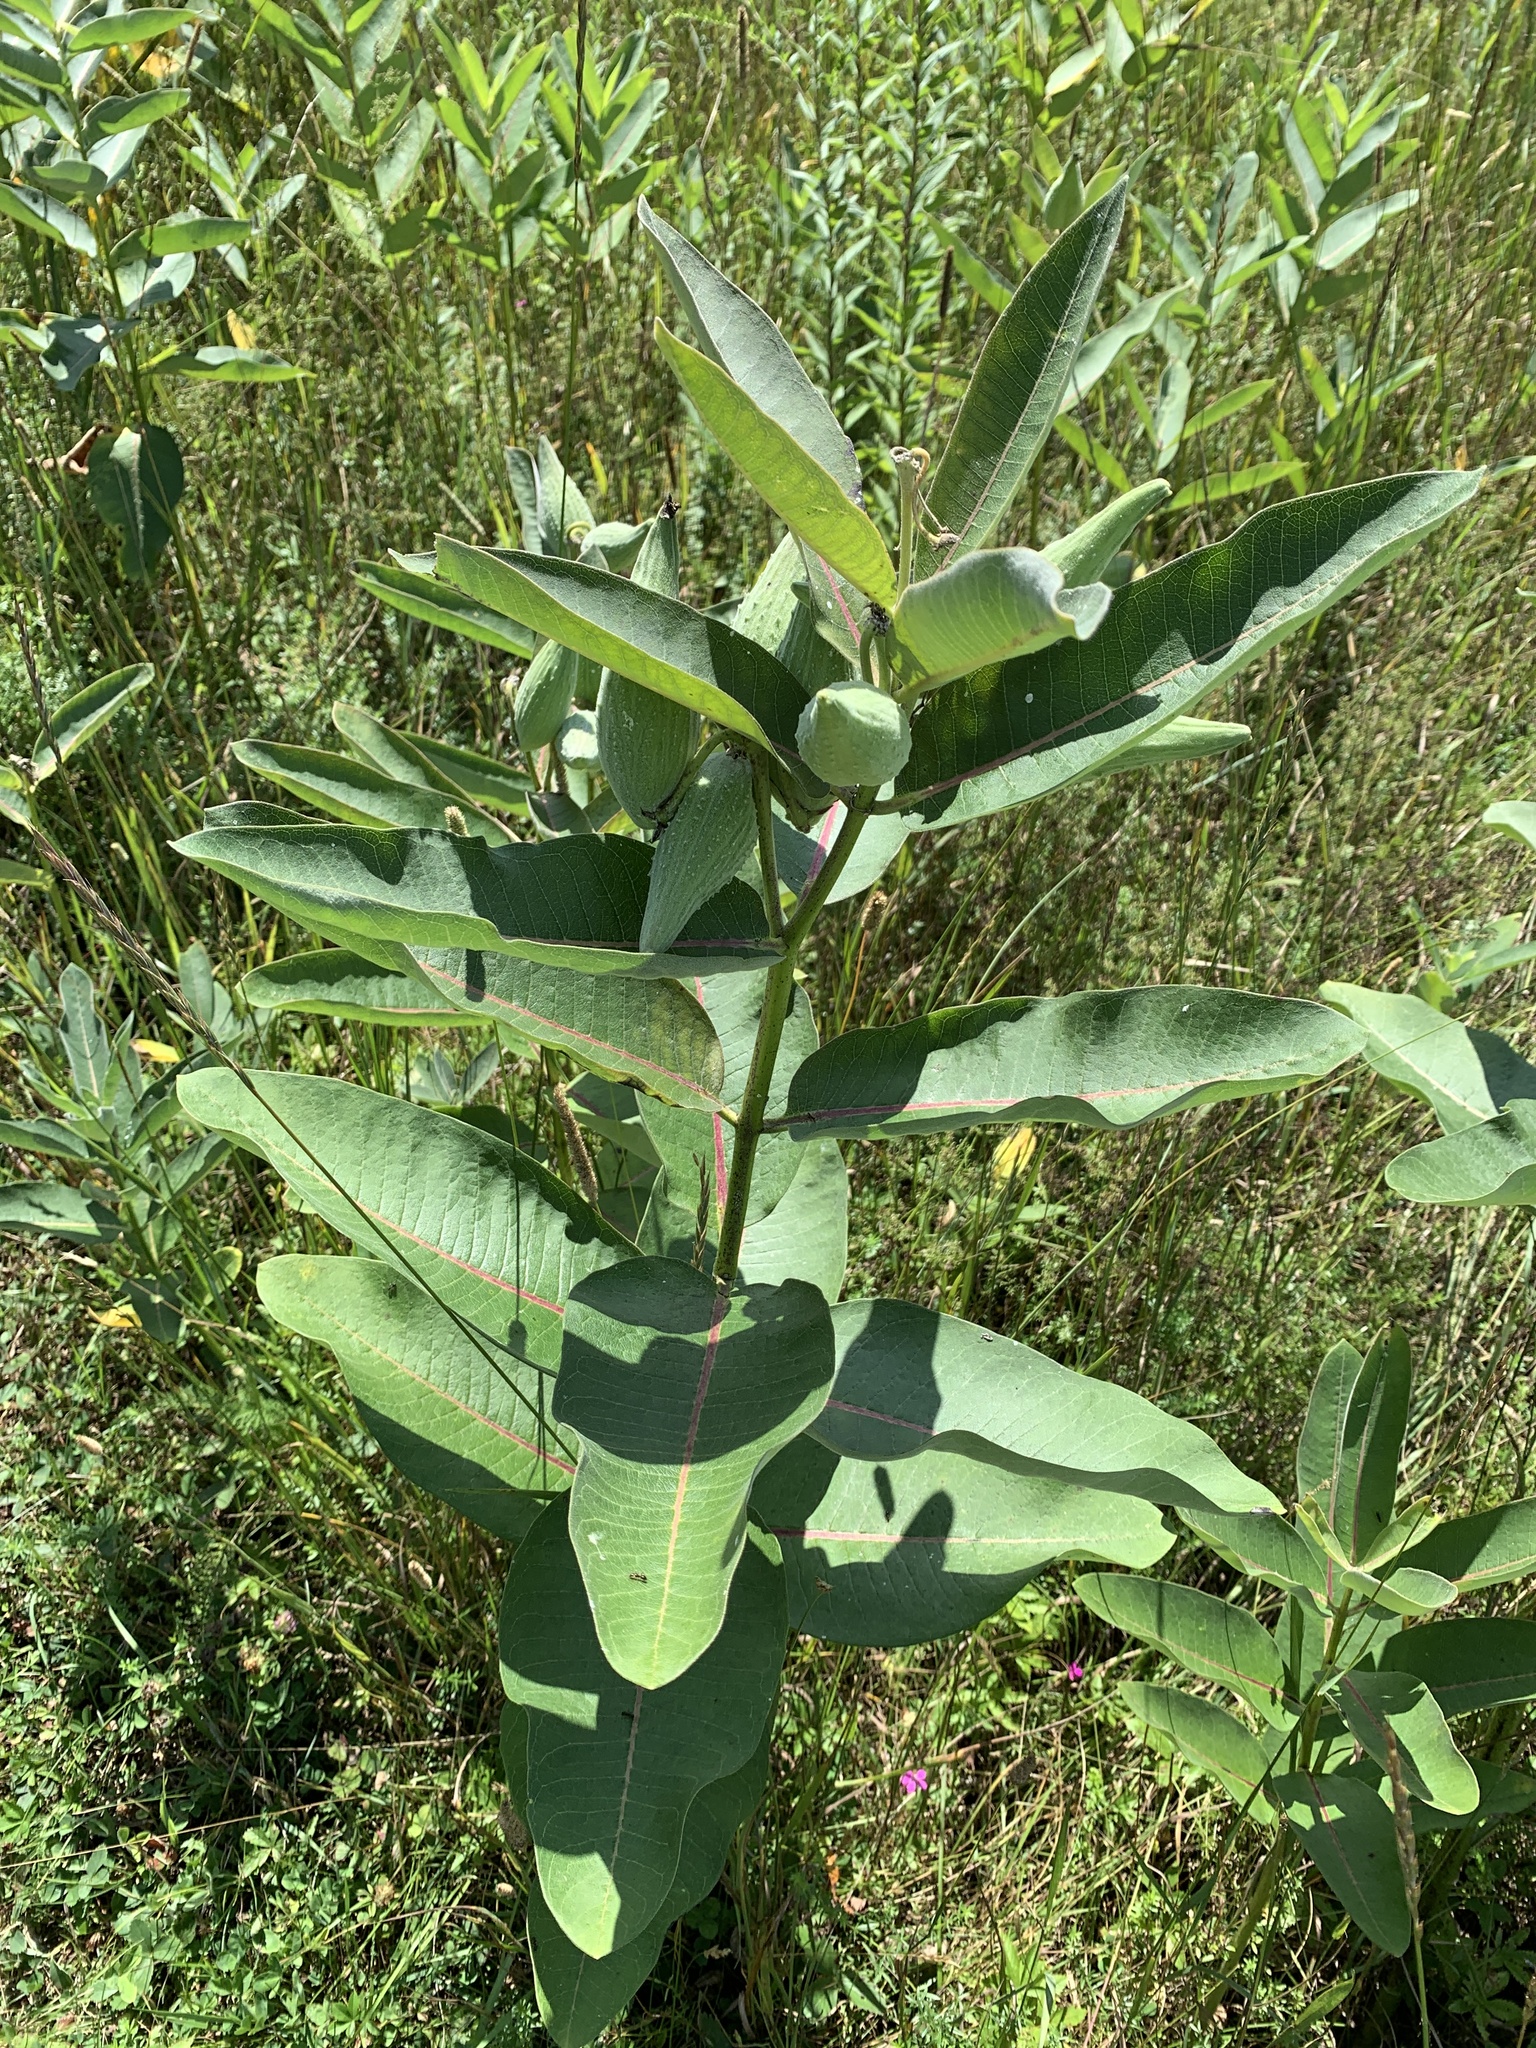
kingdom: Plantae
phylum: Tracheophyta
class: Magnoliopsida
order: Gentianales
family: Apocynaceae
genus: Asclepias
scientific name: Asclepias syriaca
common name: Common milkweed
